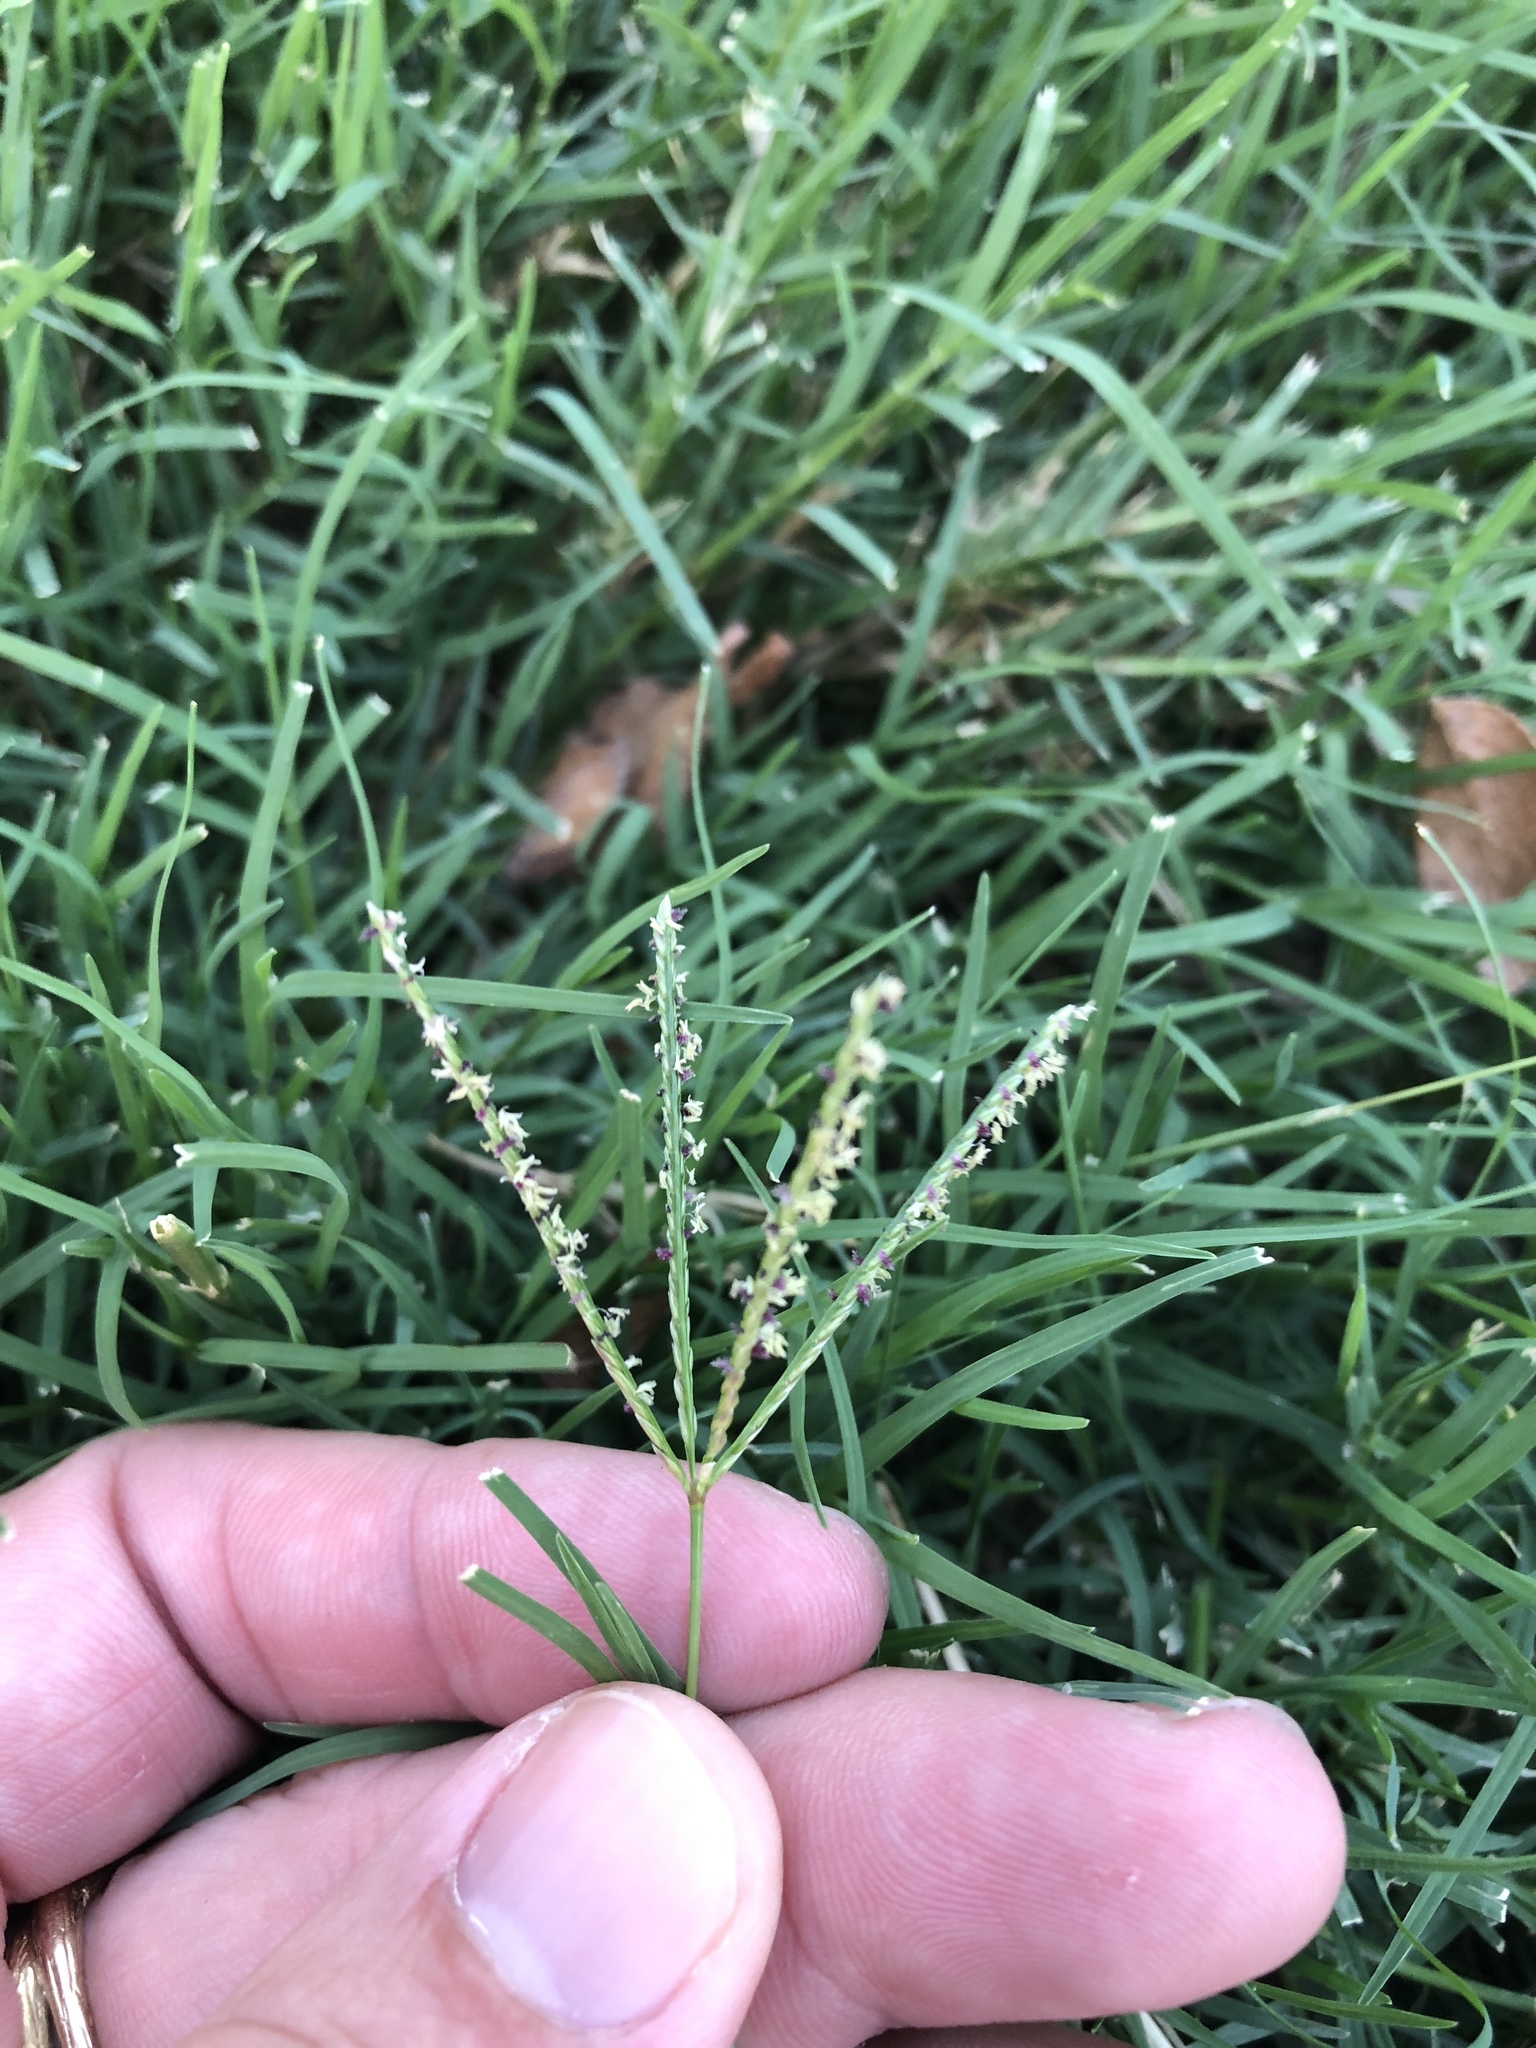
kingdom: Plantae
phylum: Tracheophyta
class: Liliopsida
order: Poales
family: Poaceae
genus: Cynodon
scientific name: Cynodon dactylon
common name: Bermuda grass
